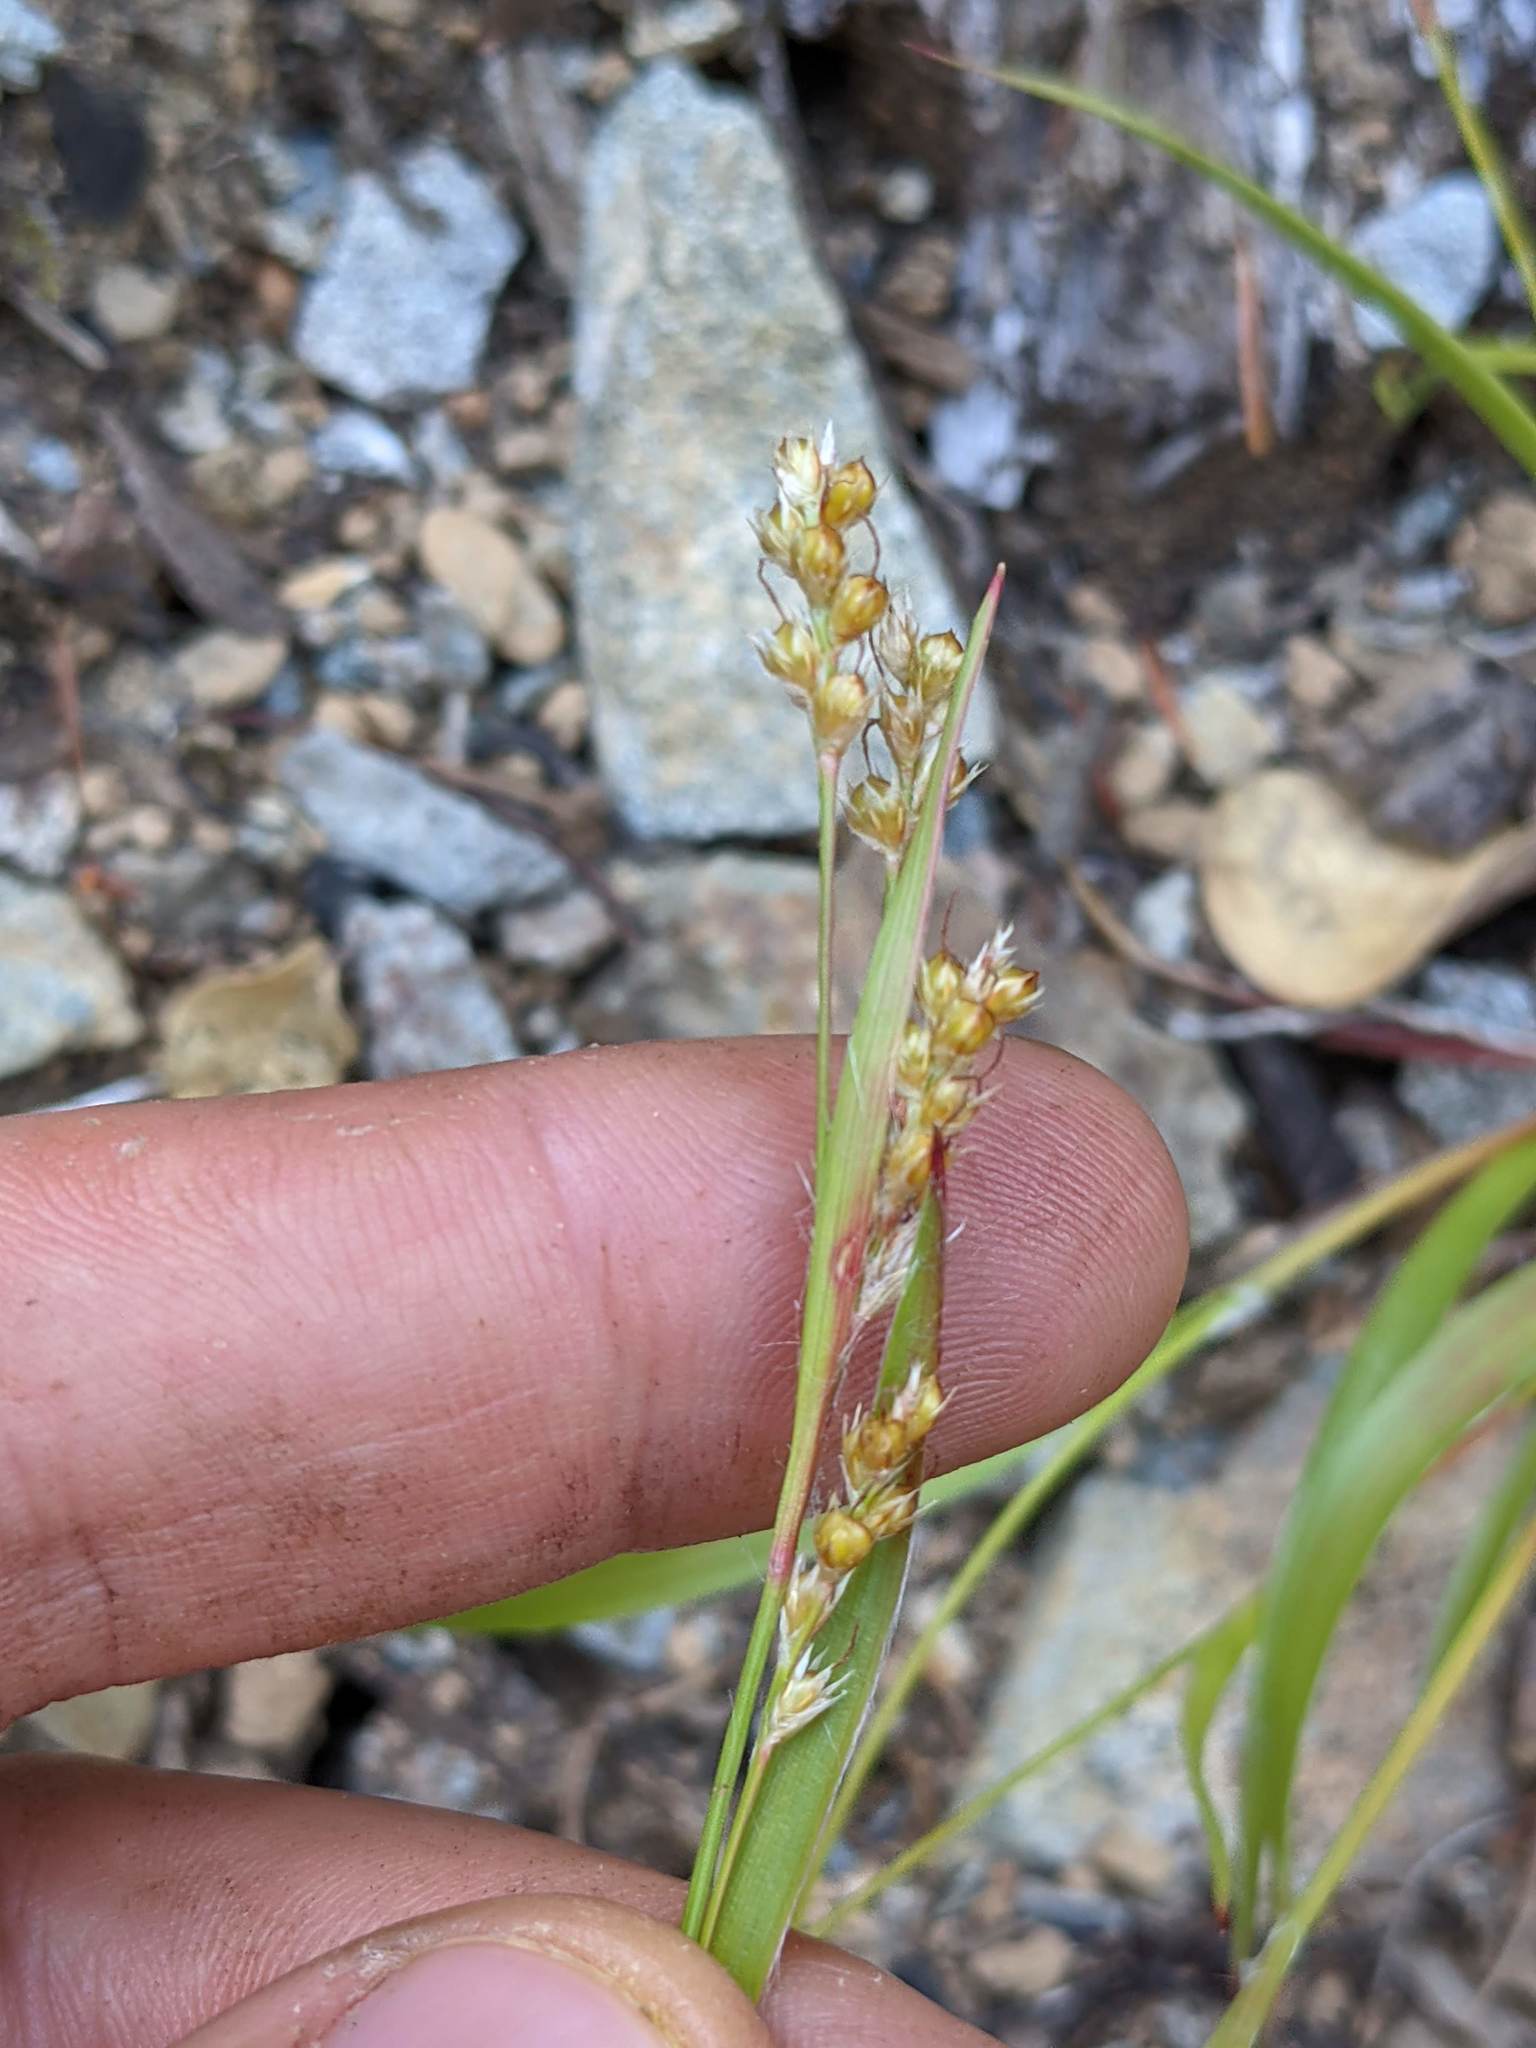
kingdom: Plantae
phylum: Tracheophyta
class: Liliopsida
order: Poales
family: Juncaceae
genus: Luzula
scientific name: Luzula comosa
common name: Pacific woodrush
